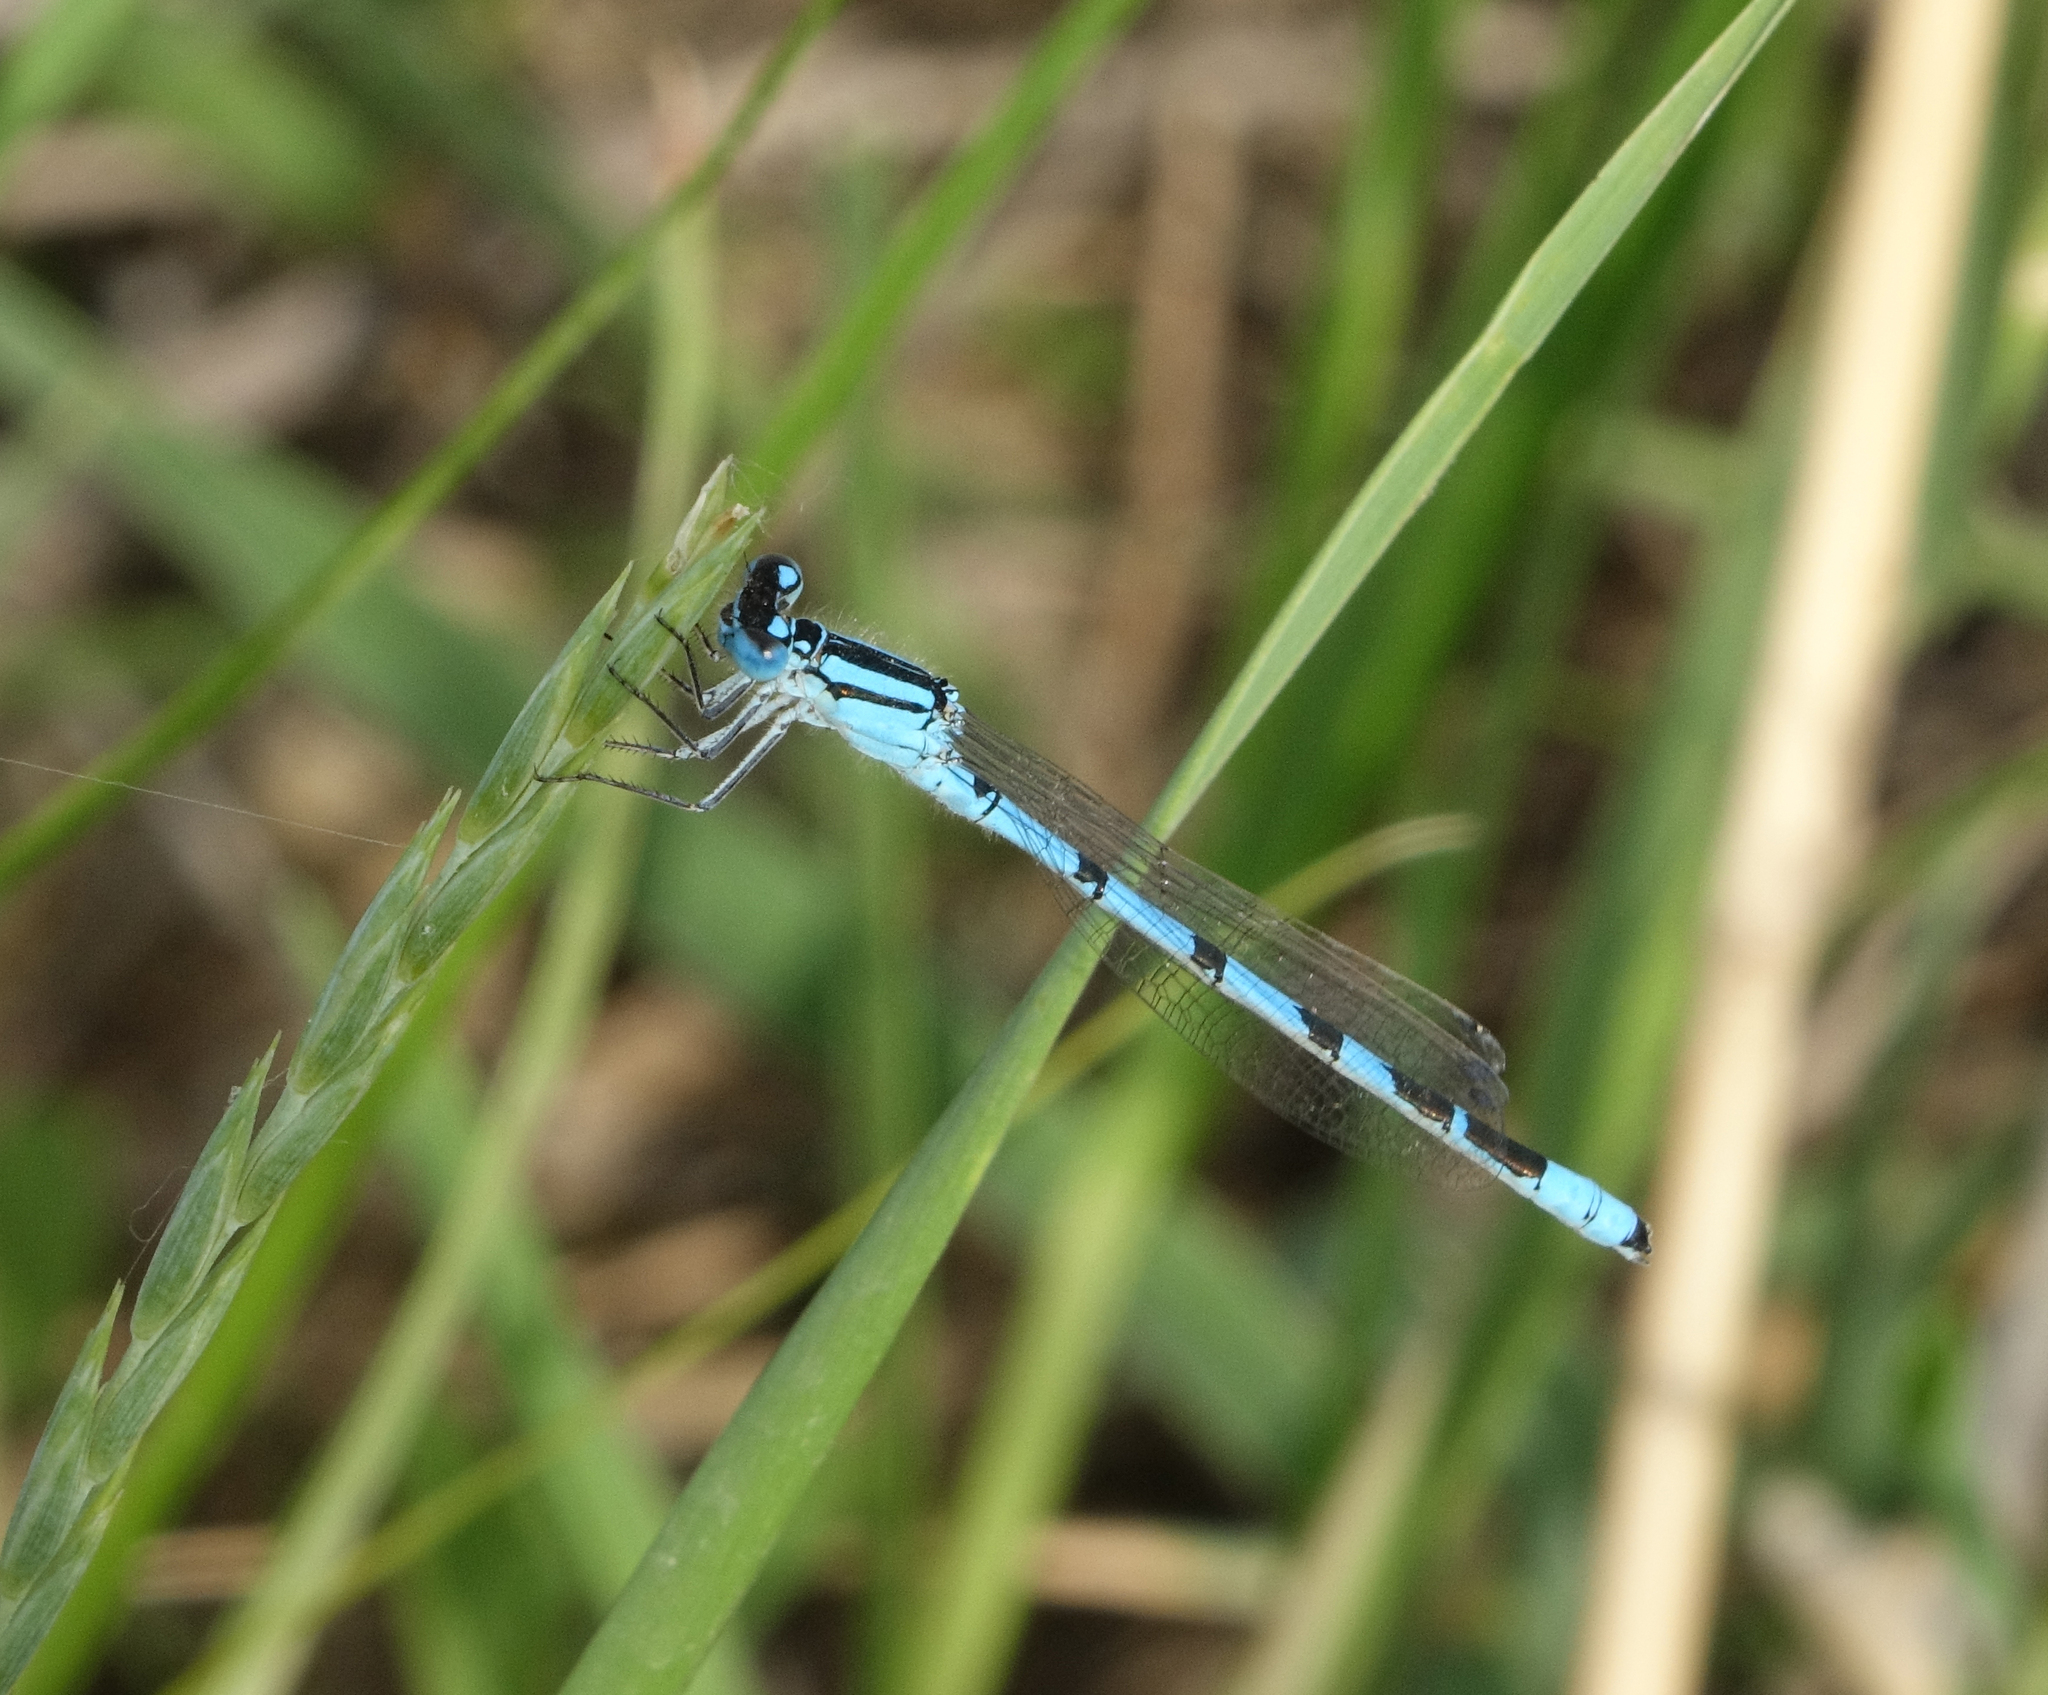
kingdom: Animalia
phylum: Arthropoda
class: Insecta
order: Odonata
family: Coenagrionidae
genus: Enallagma
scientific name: Enallagma cyathigerum
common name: Common blue damselfly
